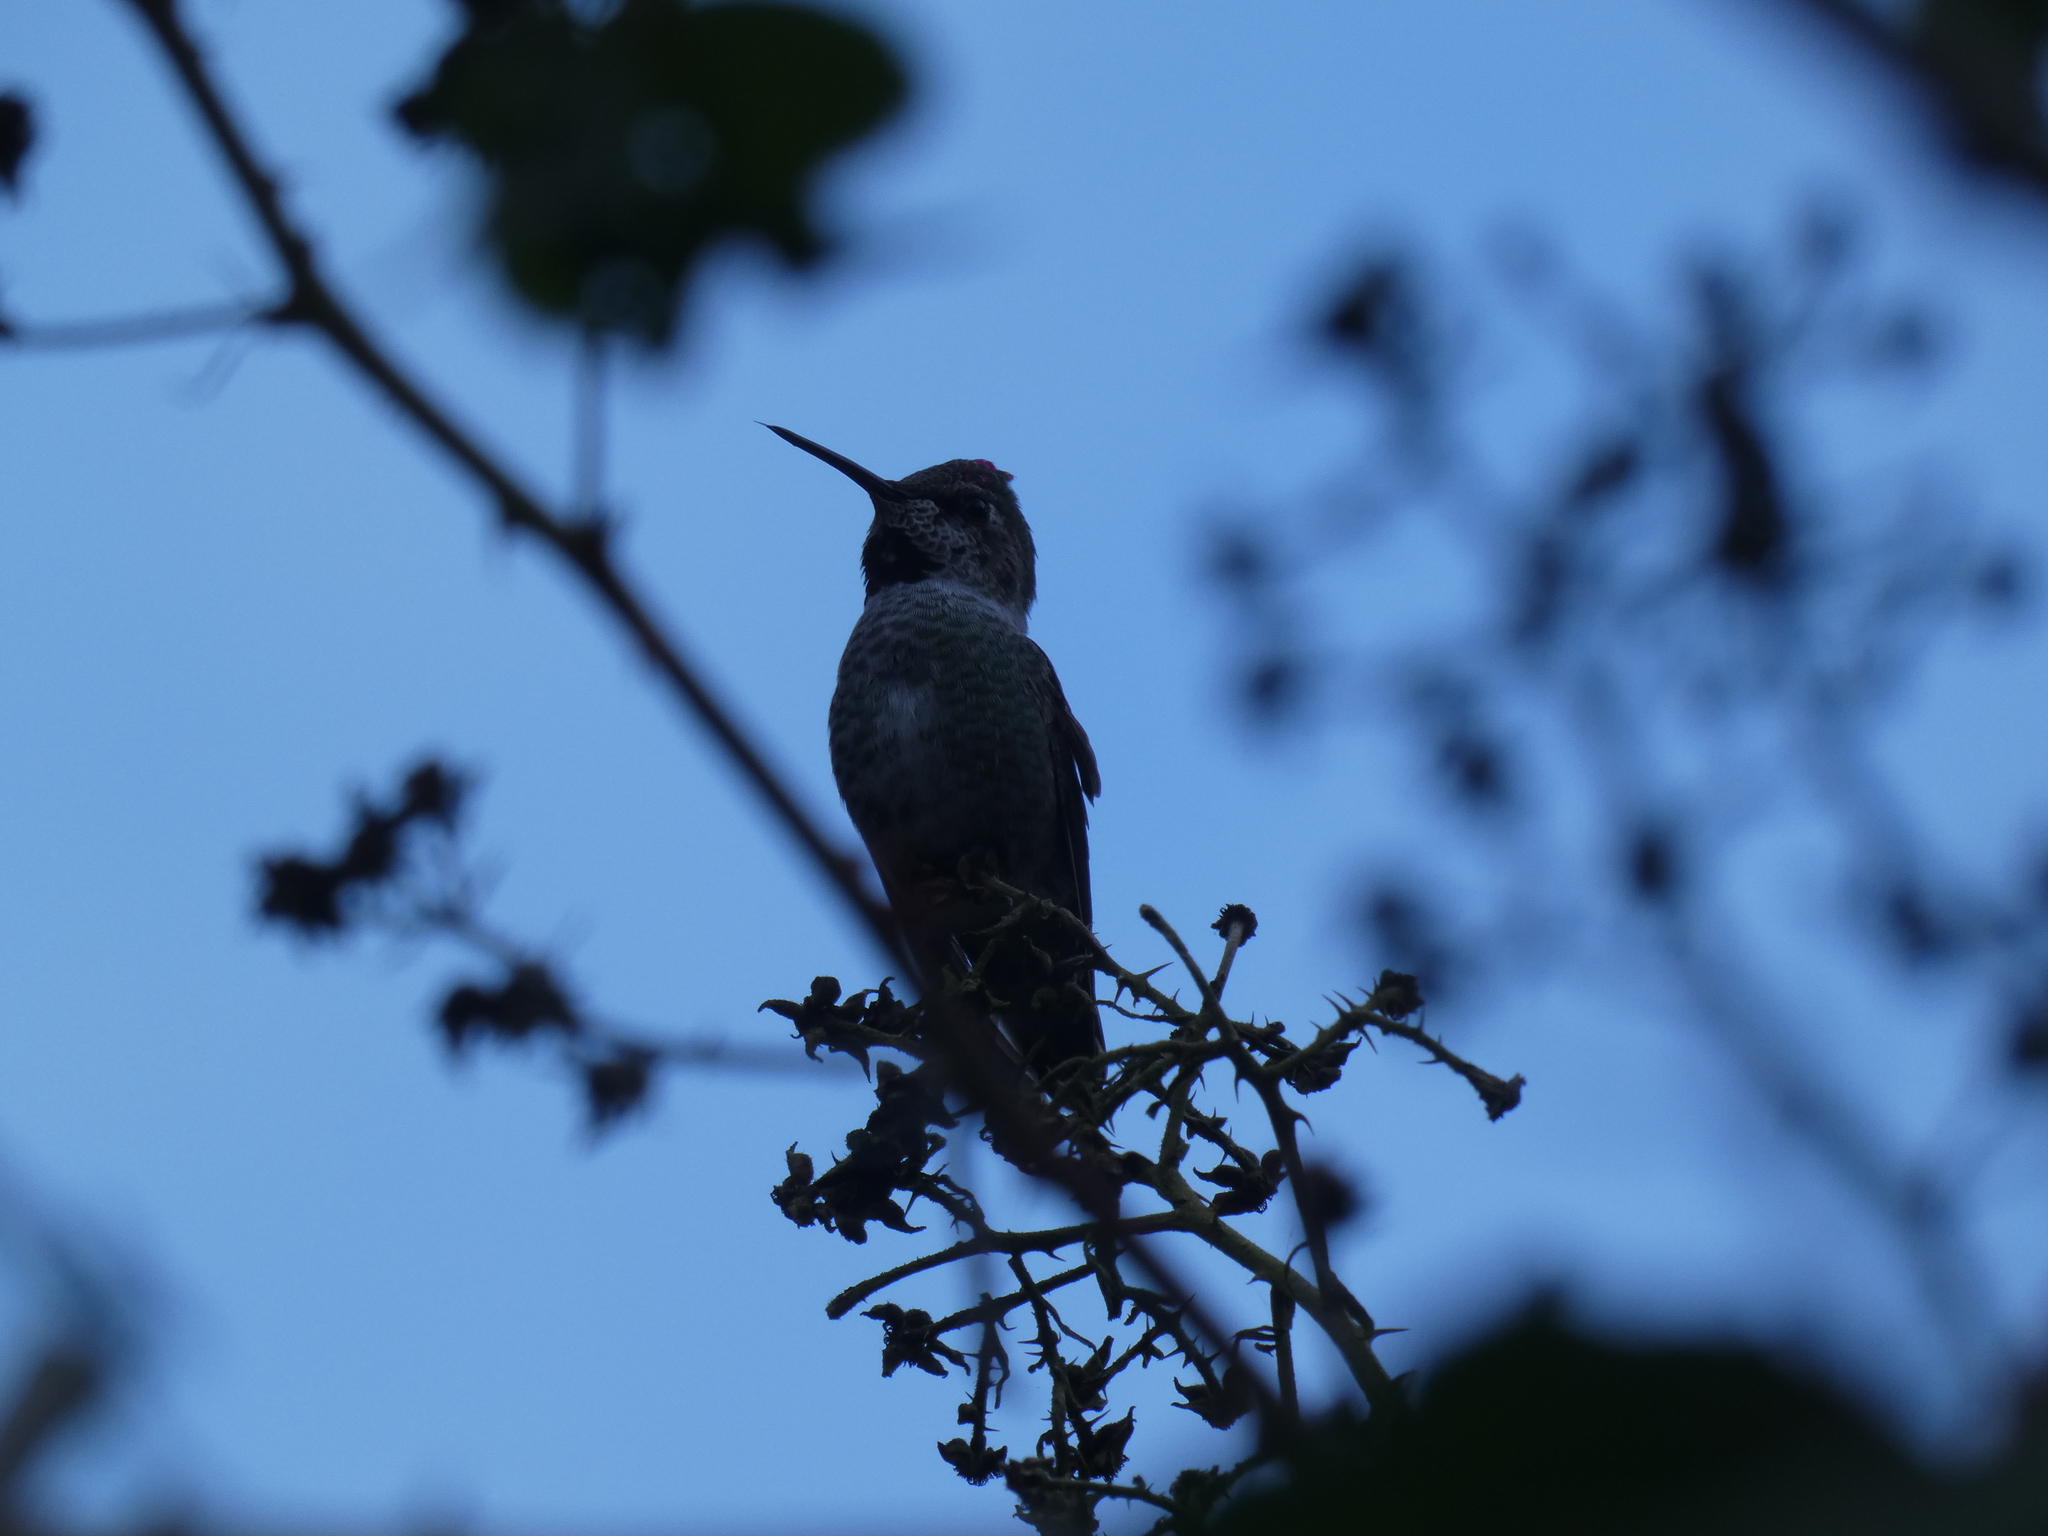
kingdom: Animalia
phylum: Chordata
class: Aves
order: Apodiformes
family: Trochilidae
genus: Calypte
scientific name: Calypte anna
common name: Anna's hummingbird
